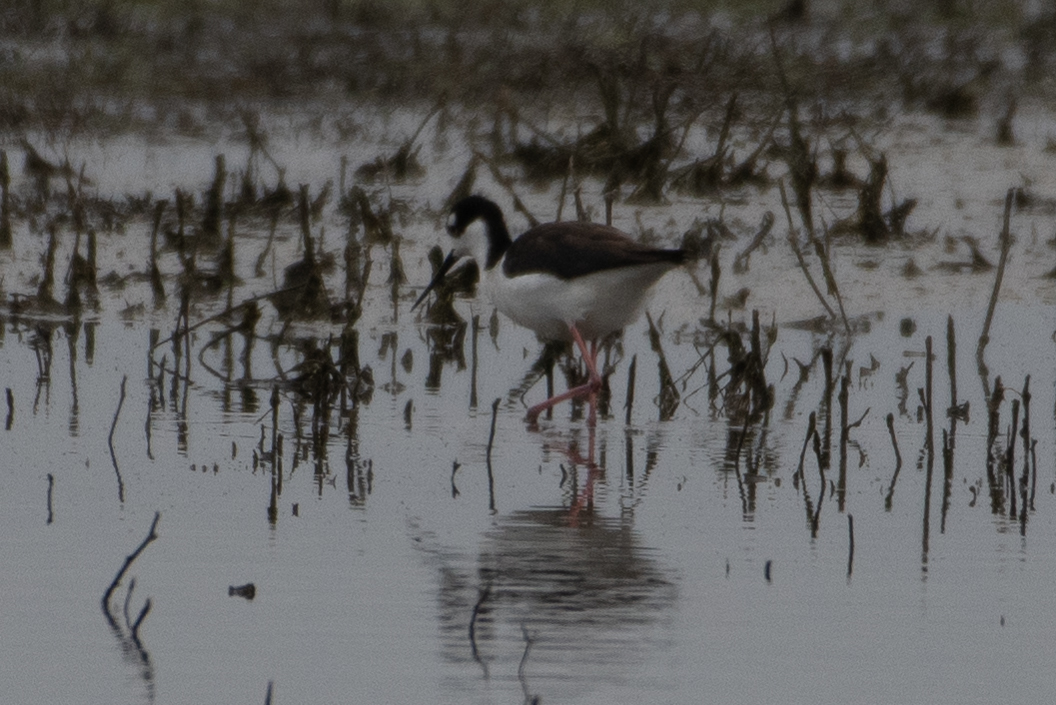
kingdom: Animalia
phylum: Chordata
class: Aves
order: Charadriiformes
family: Recurvirostridae
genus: Himantopus
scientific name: Himantopus mexicanus
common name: Black-necked stilt
